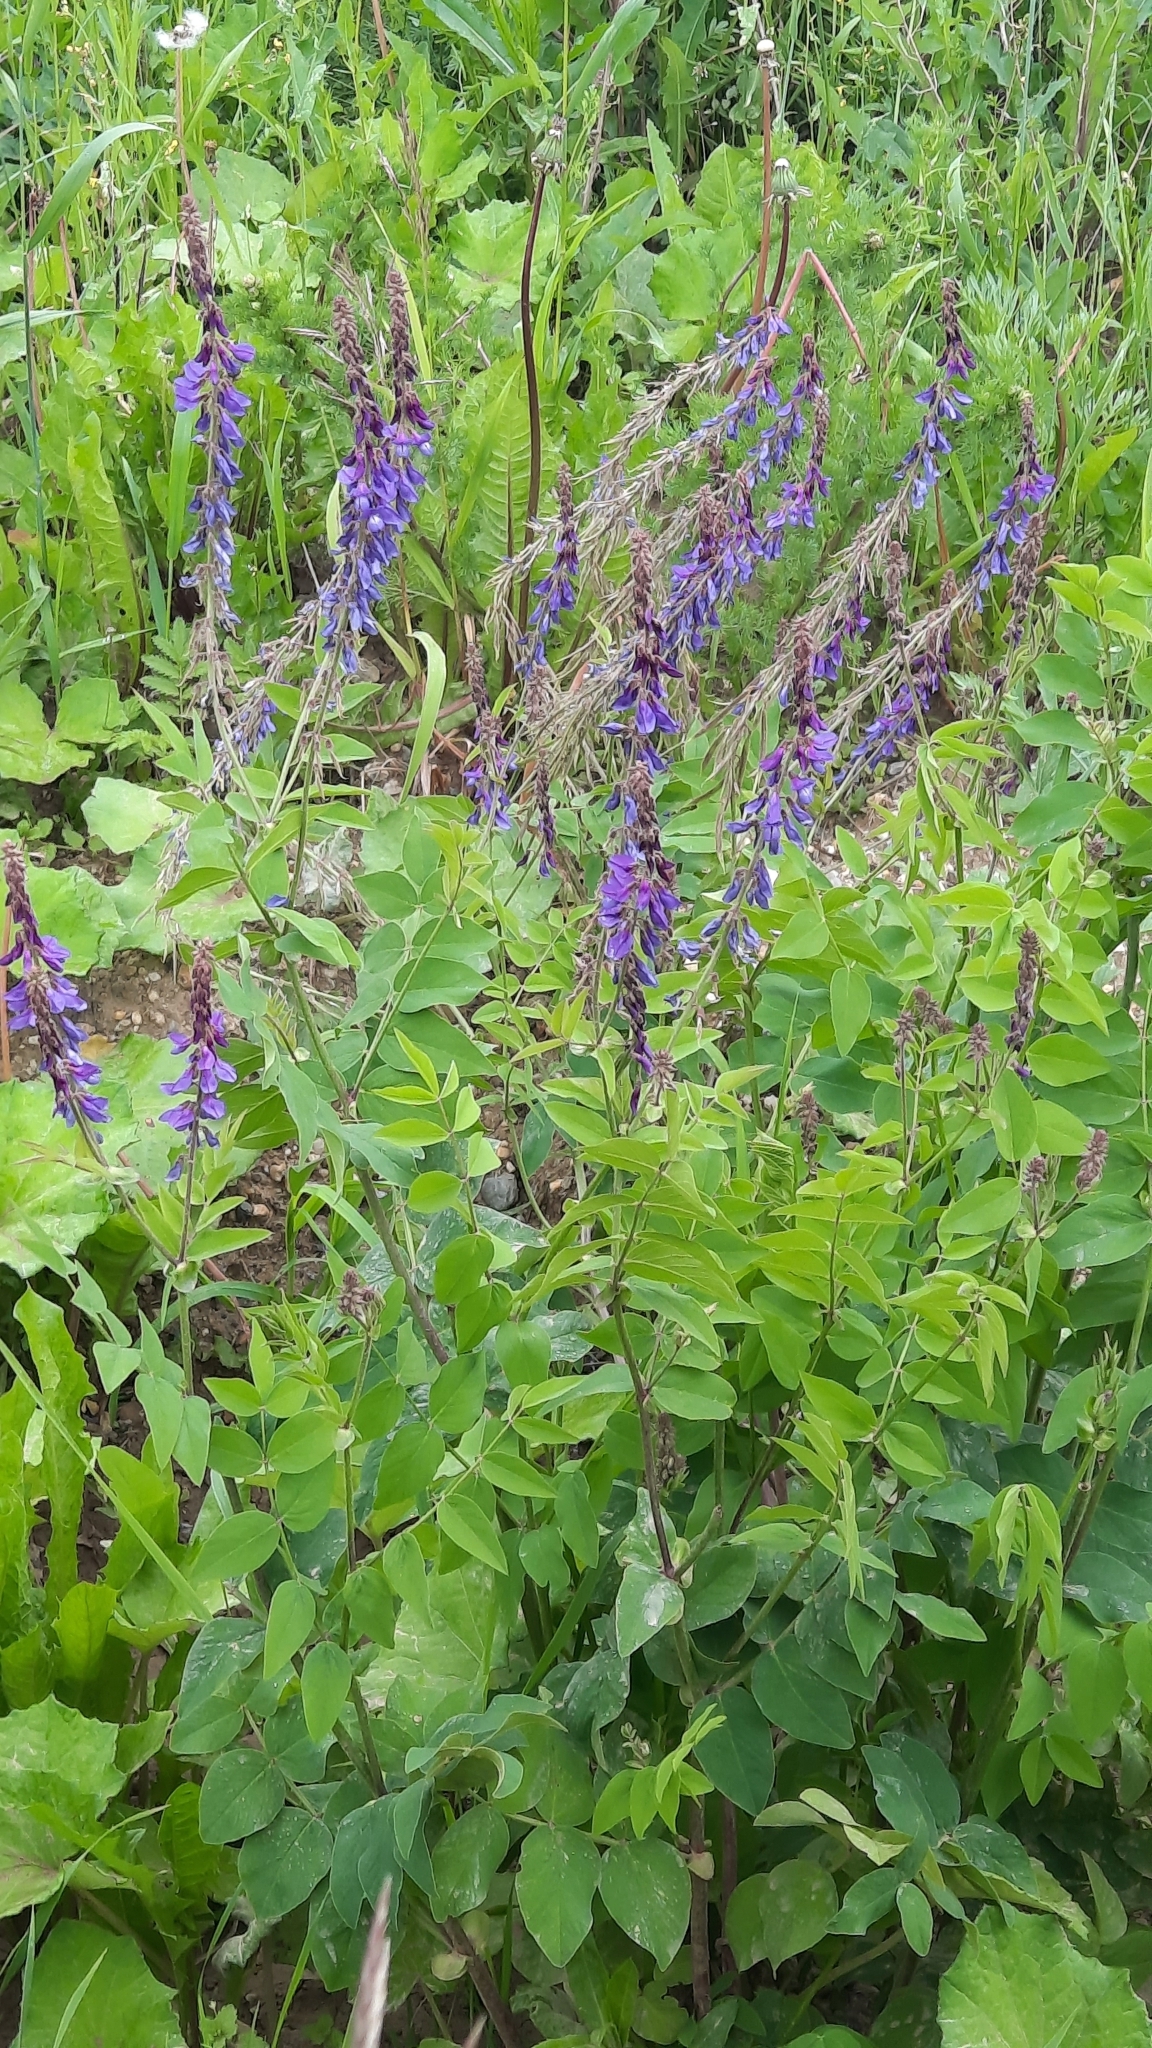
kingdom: Plantae
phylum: Tracheophyta
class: Magnoliopsida
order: Fabales
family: Fabaceae
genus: Galega
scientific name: Galega orientalis
